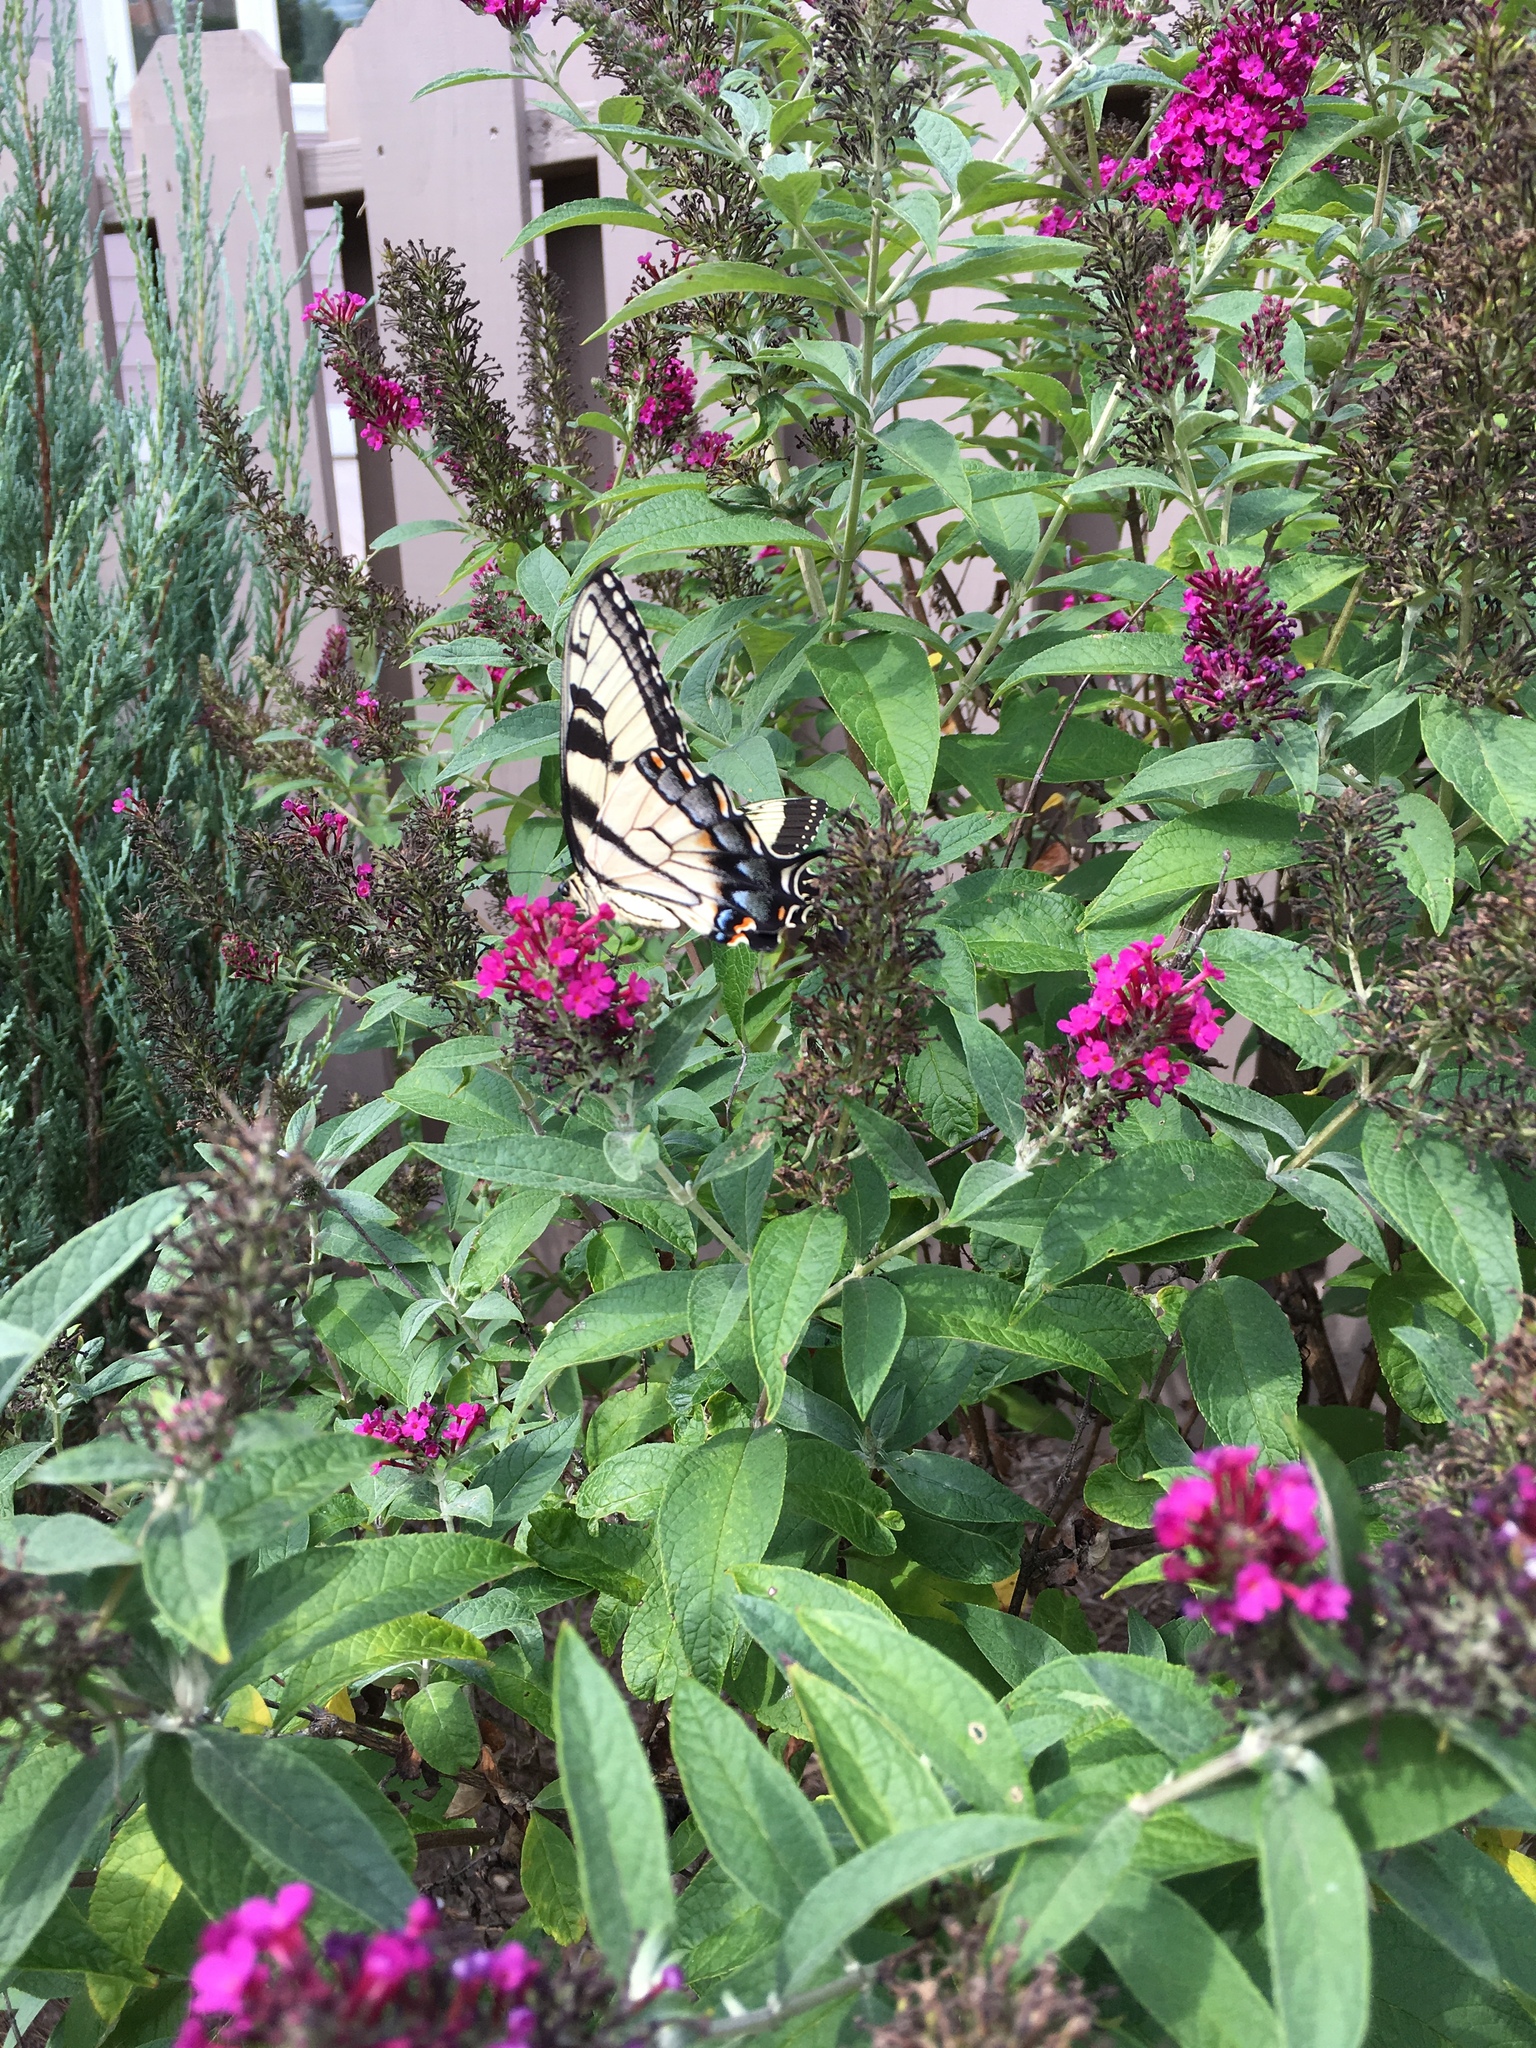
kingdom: Animalia
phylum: Arthropoda
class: Insecta
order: Lepidoptera
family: Papilionidae
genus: Papilio
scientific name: Papilio glaucus
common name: Tiger swallowtail
